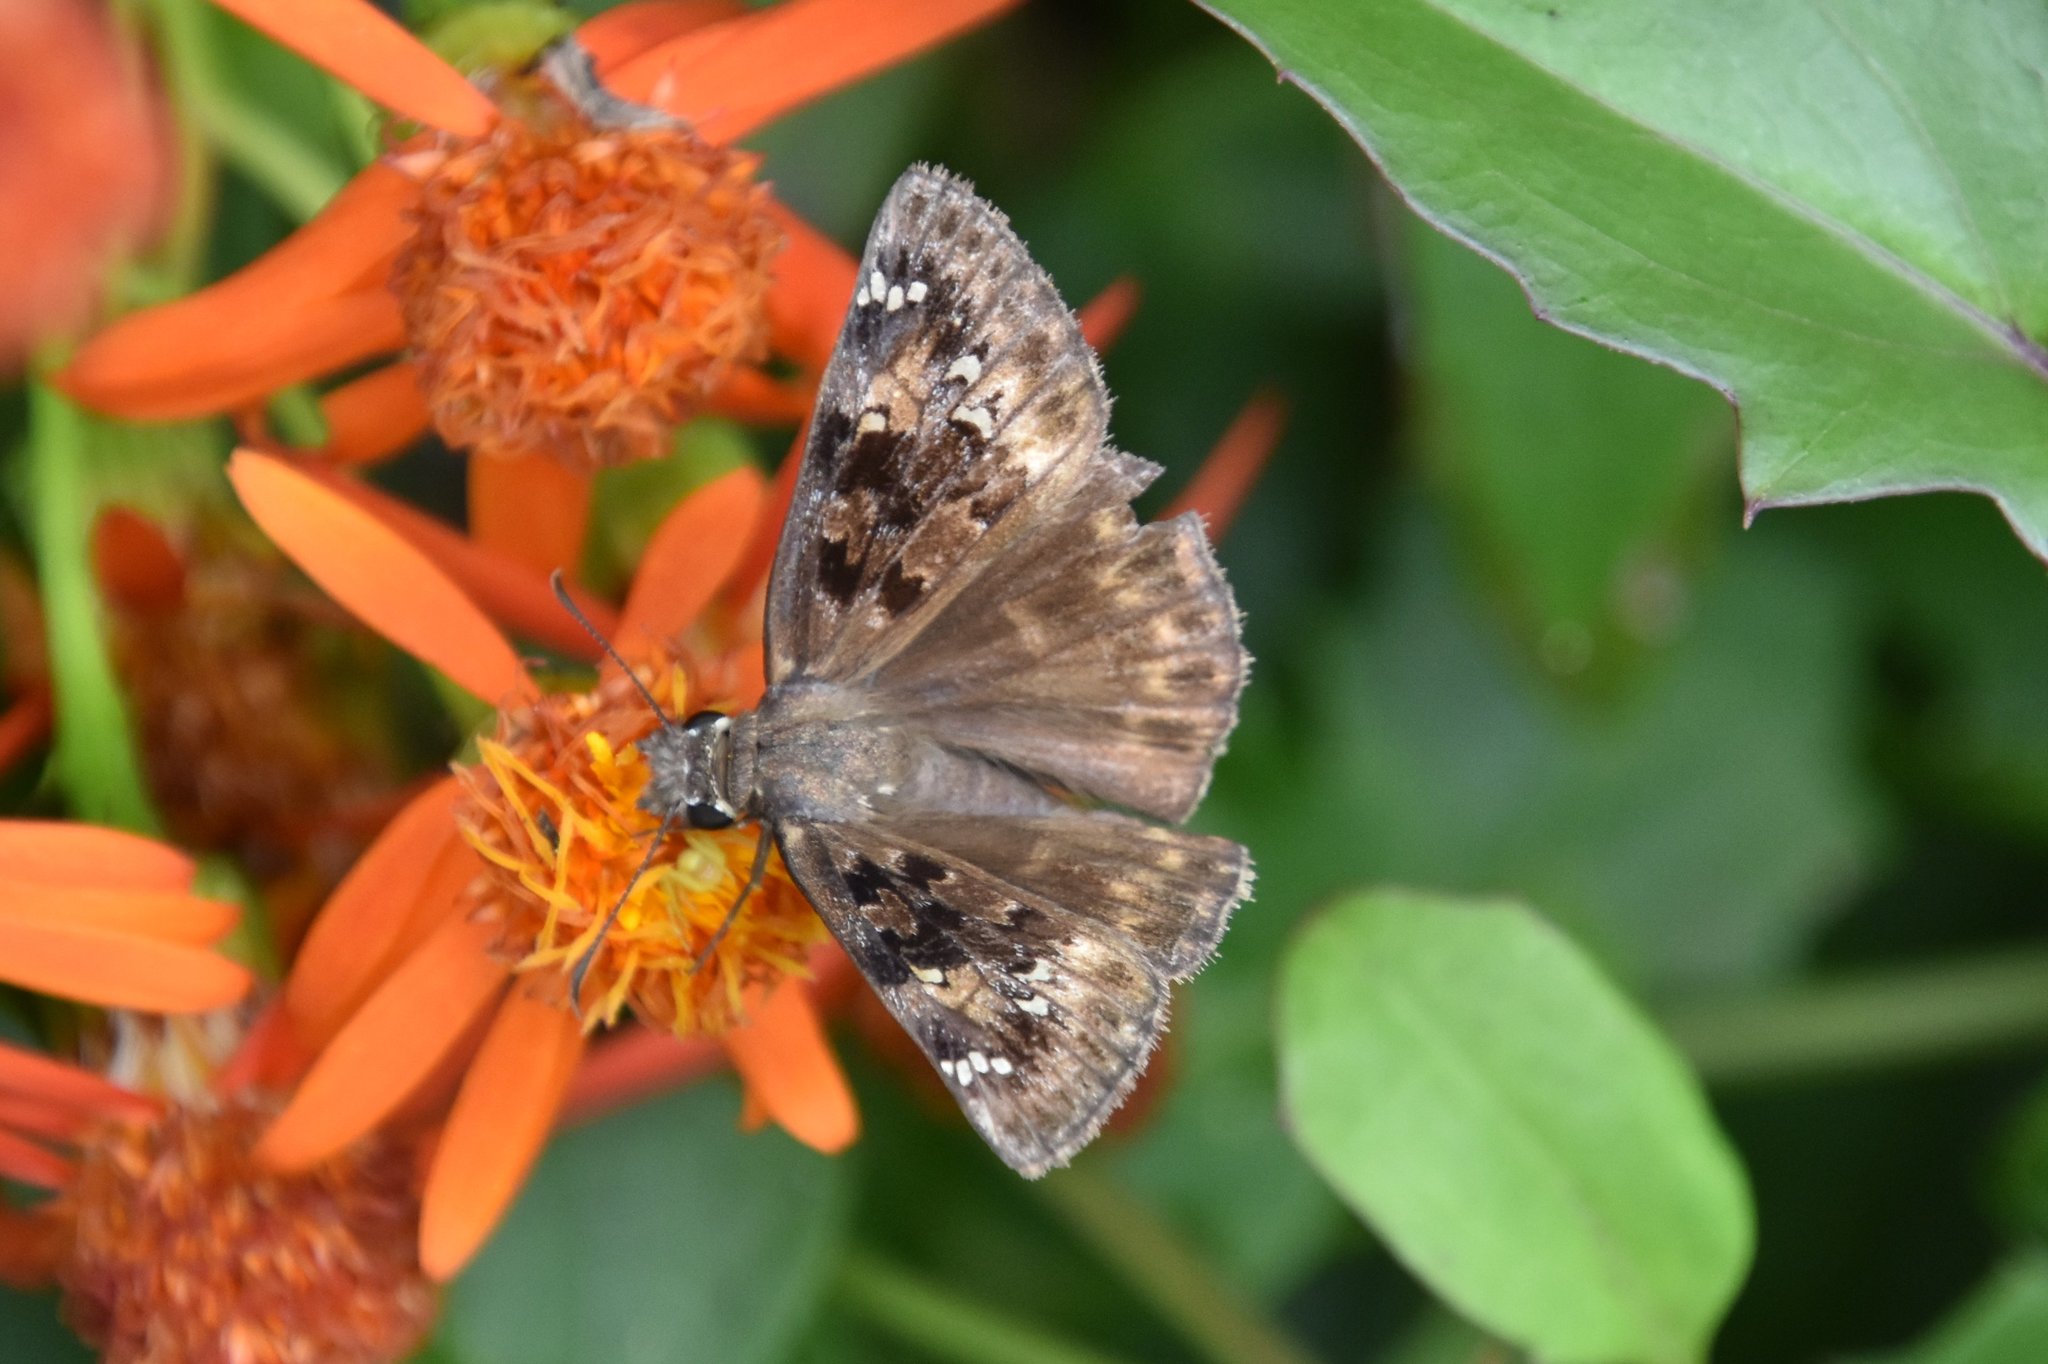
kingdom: Animalia
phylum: Arthropoda
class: Insecta
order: Lepidoptera
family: Hesperiidae
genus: Erynnis
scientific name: Erynnis horatius
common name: Horace's duskywing
